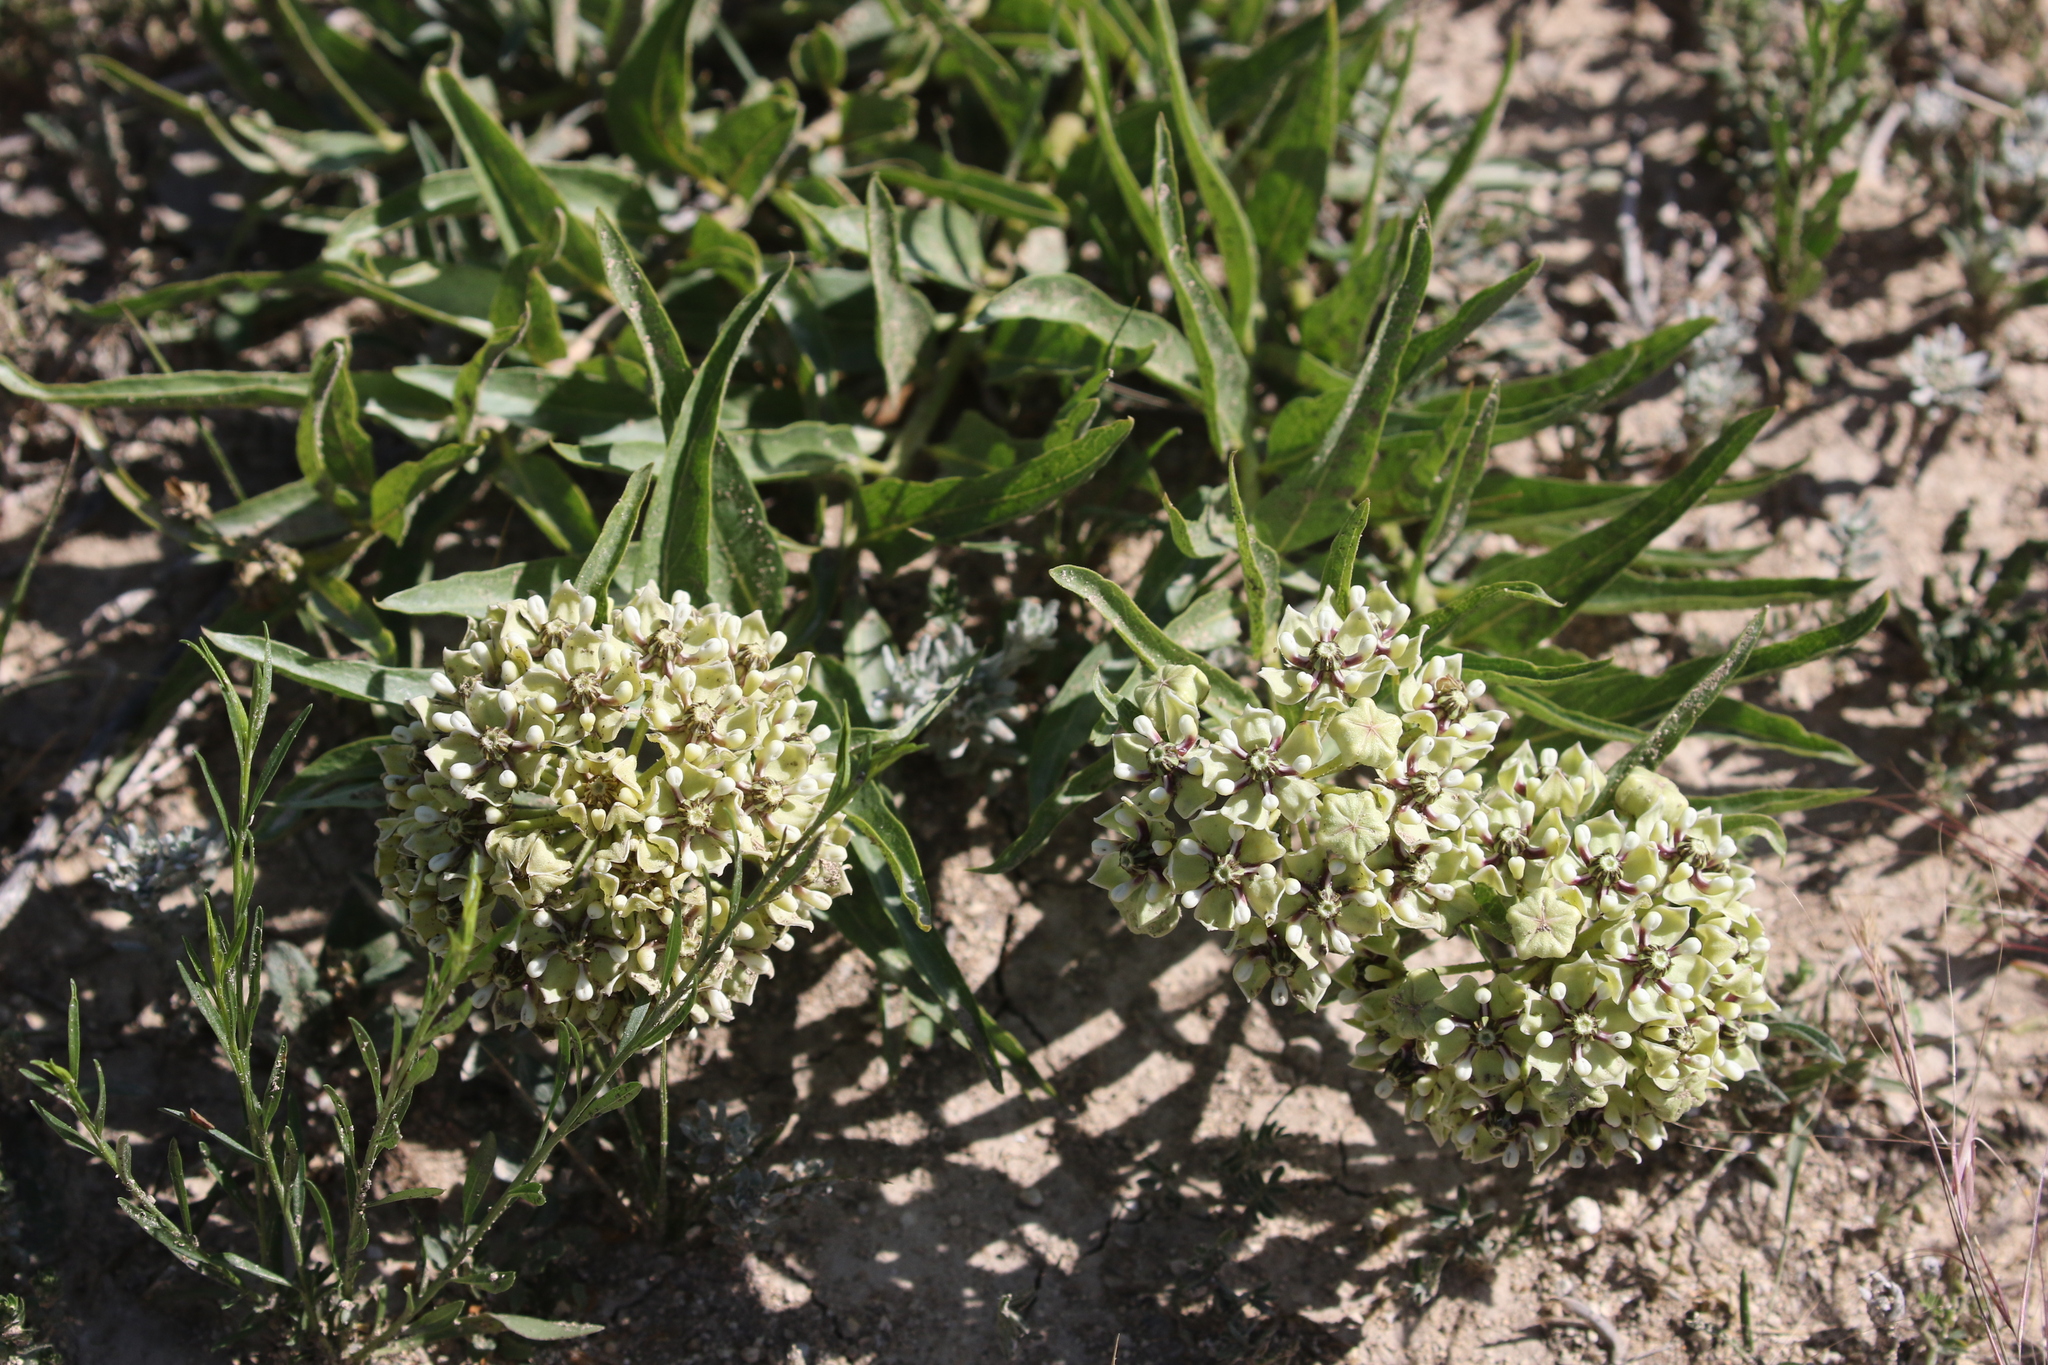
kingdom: Plantae
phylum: Tracheophyta
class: Magnoliopsida
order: Gentianales
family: Apocynaceae
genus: Asclepias
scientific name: Asclepias asperula
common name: Antelope horns
